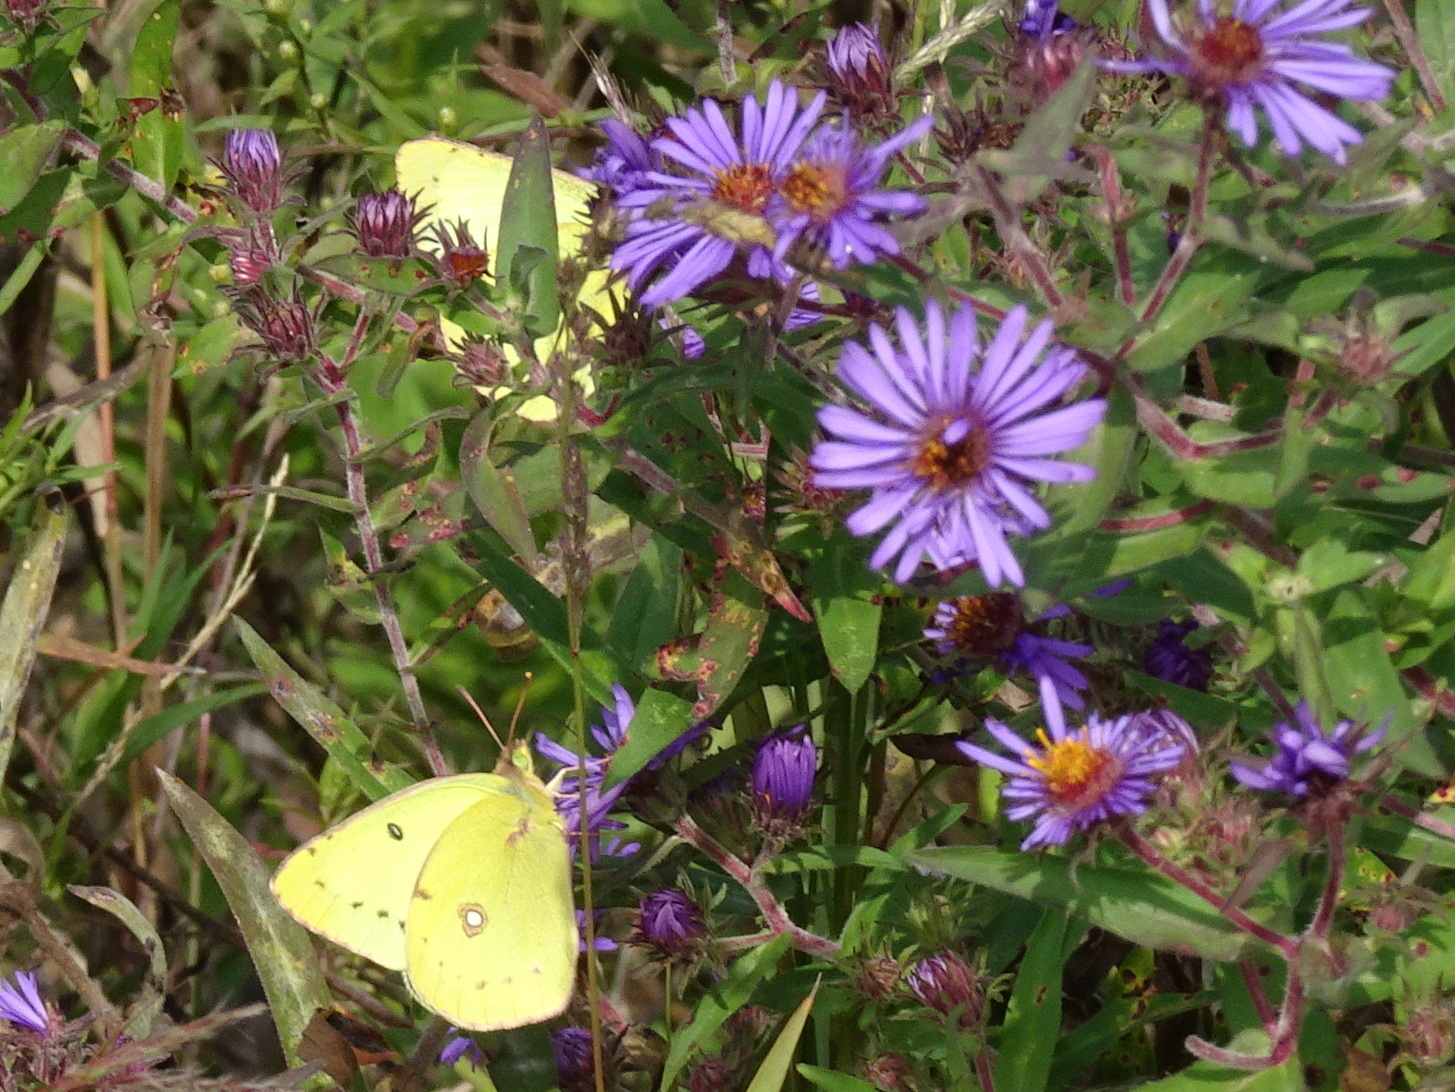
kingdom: Animalia
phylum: Arthropoda
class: Insecta
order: Lepidoptera
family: Pieridae
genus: Colias
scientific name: Colias philodice
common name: Clouded sulphur
